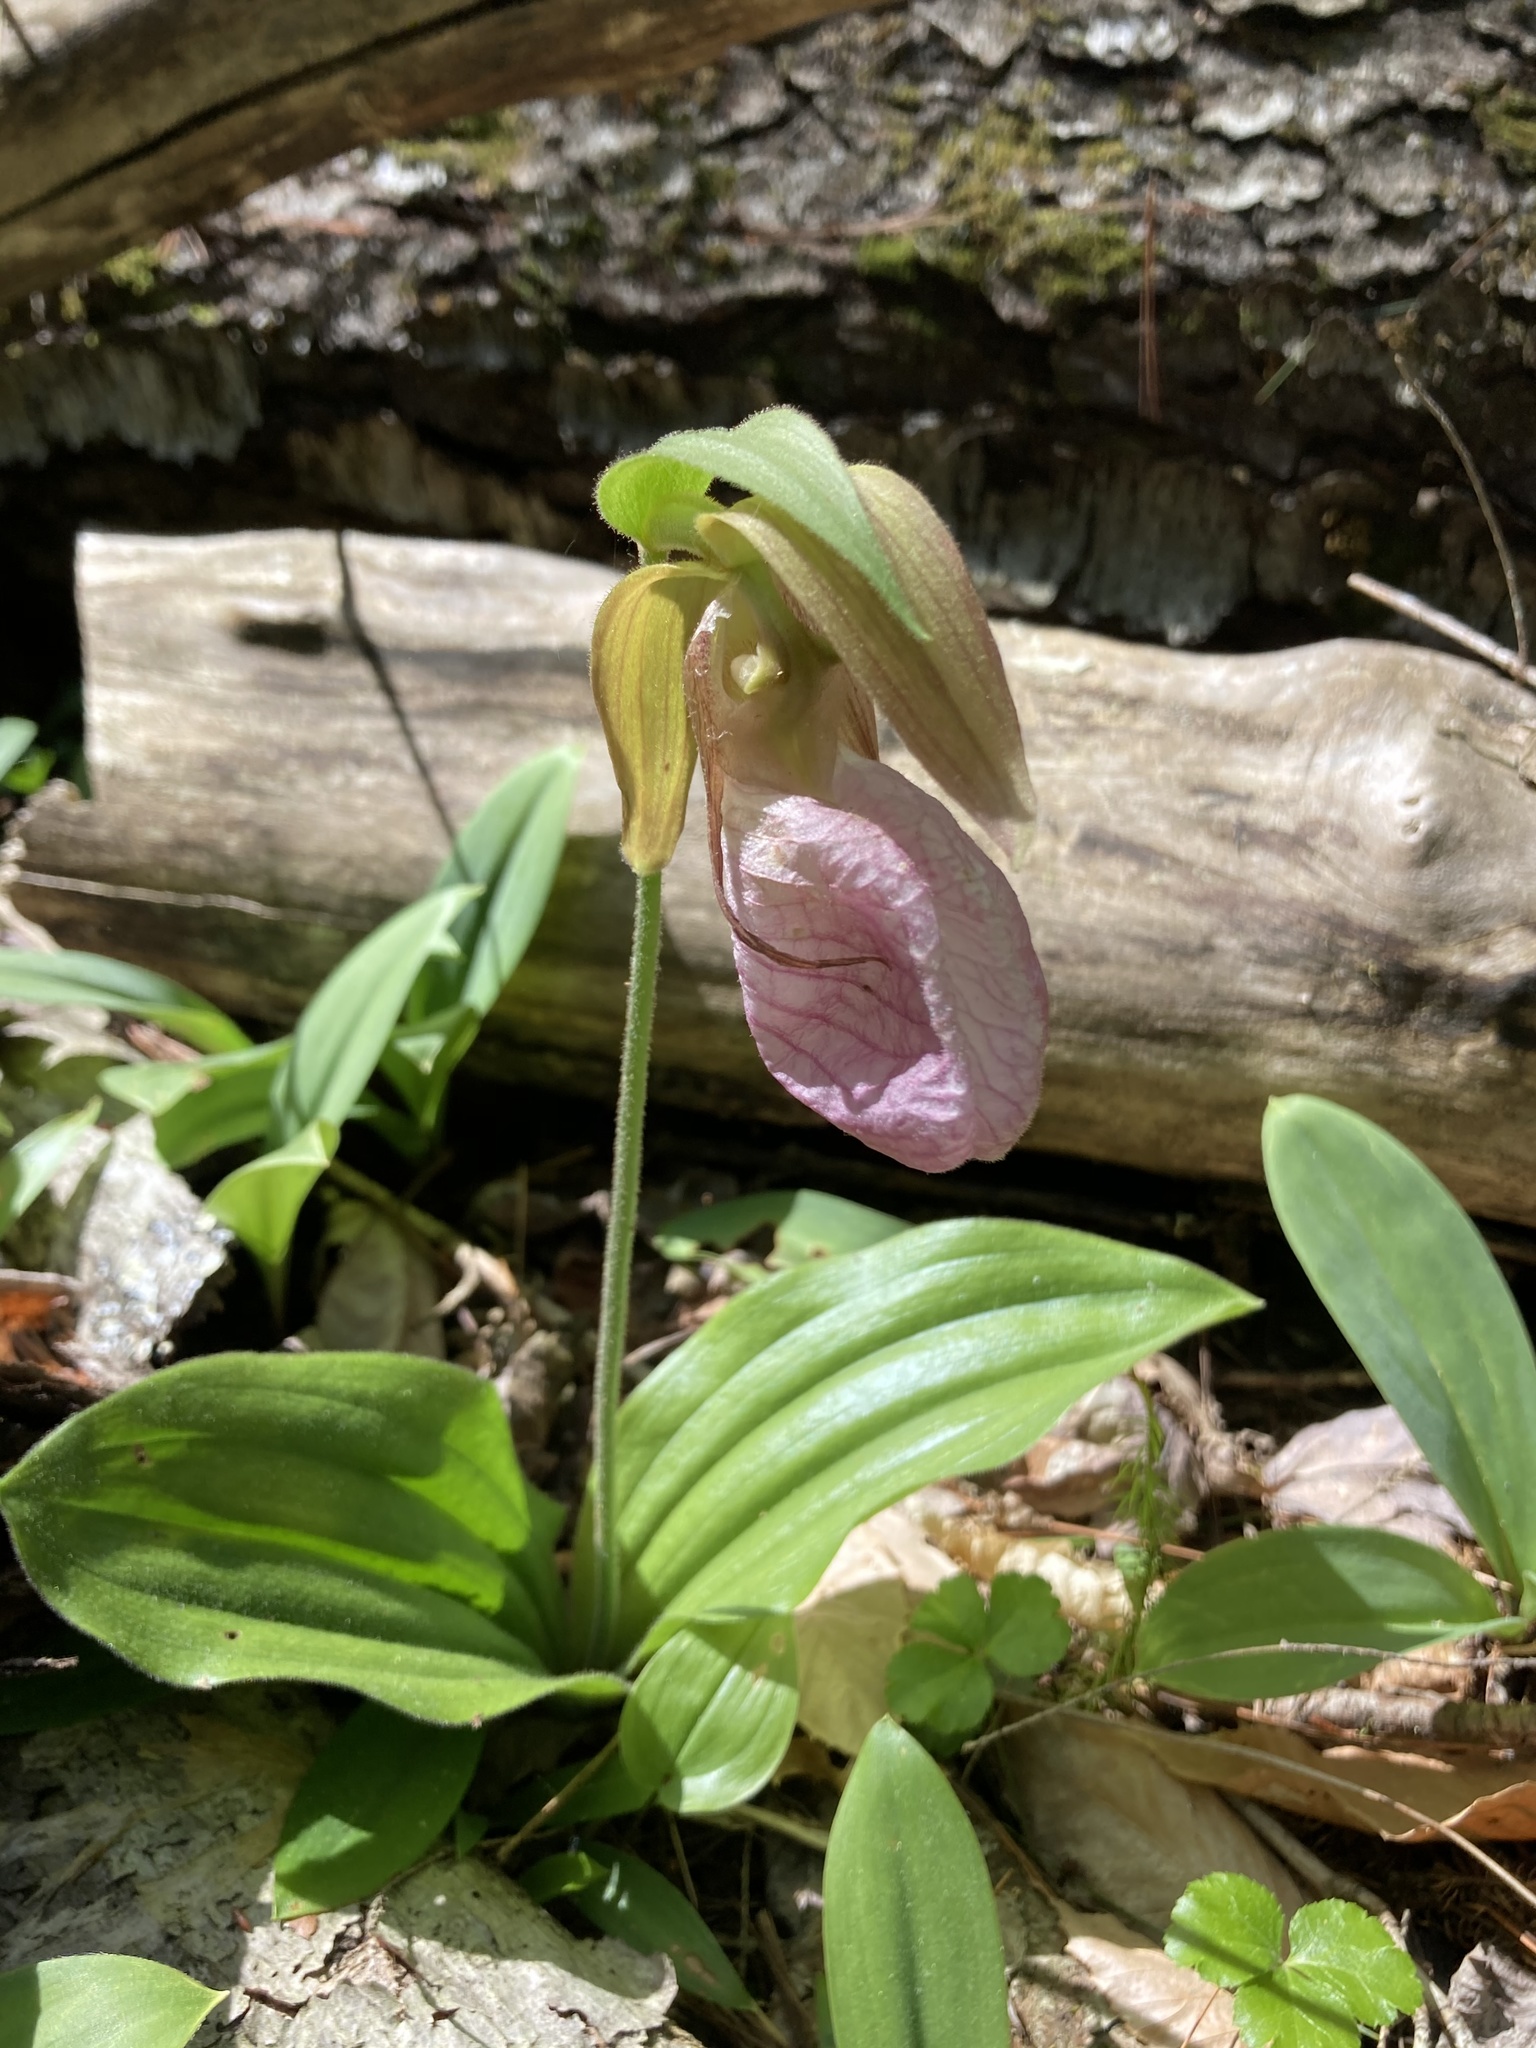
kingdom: Plantae
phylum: Tracheophyta
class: Liliopsida
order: Asparagales
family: Orchidaceae
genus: Cypripedium
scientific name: Cypripedium acaule
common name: Pink lady's-slipper
